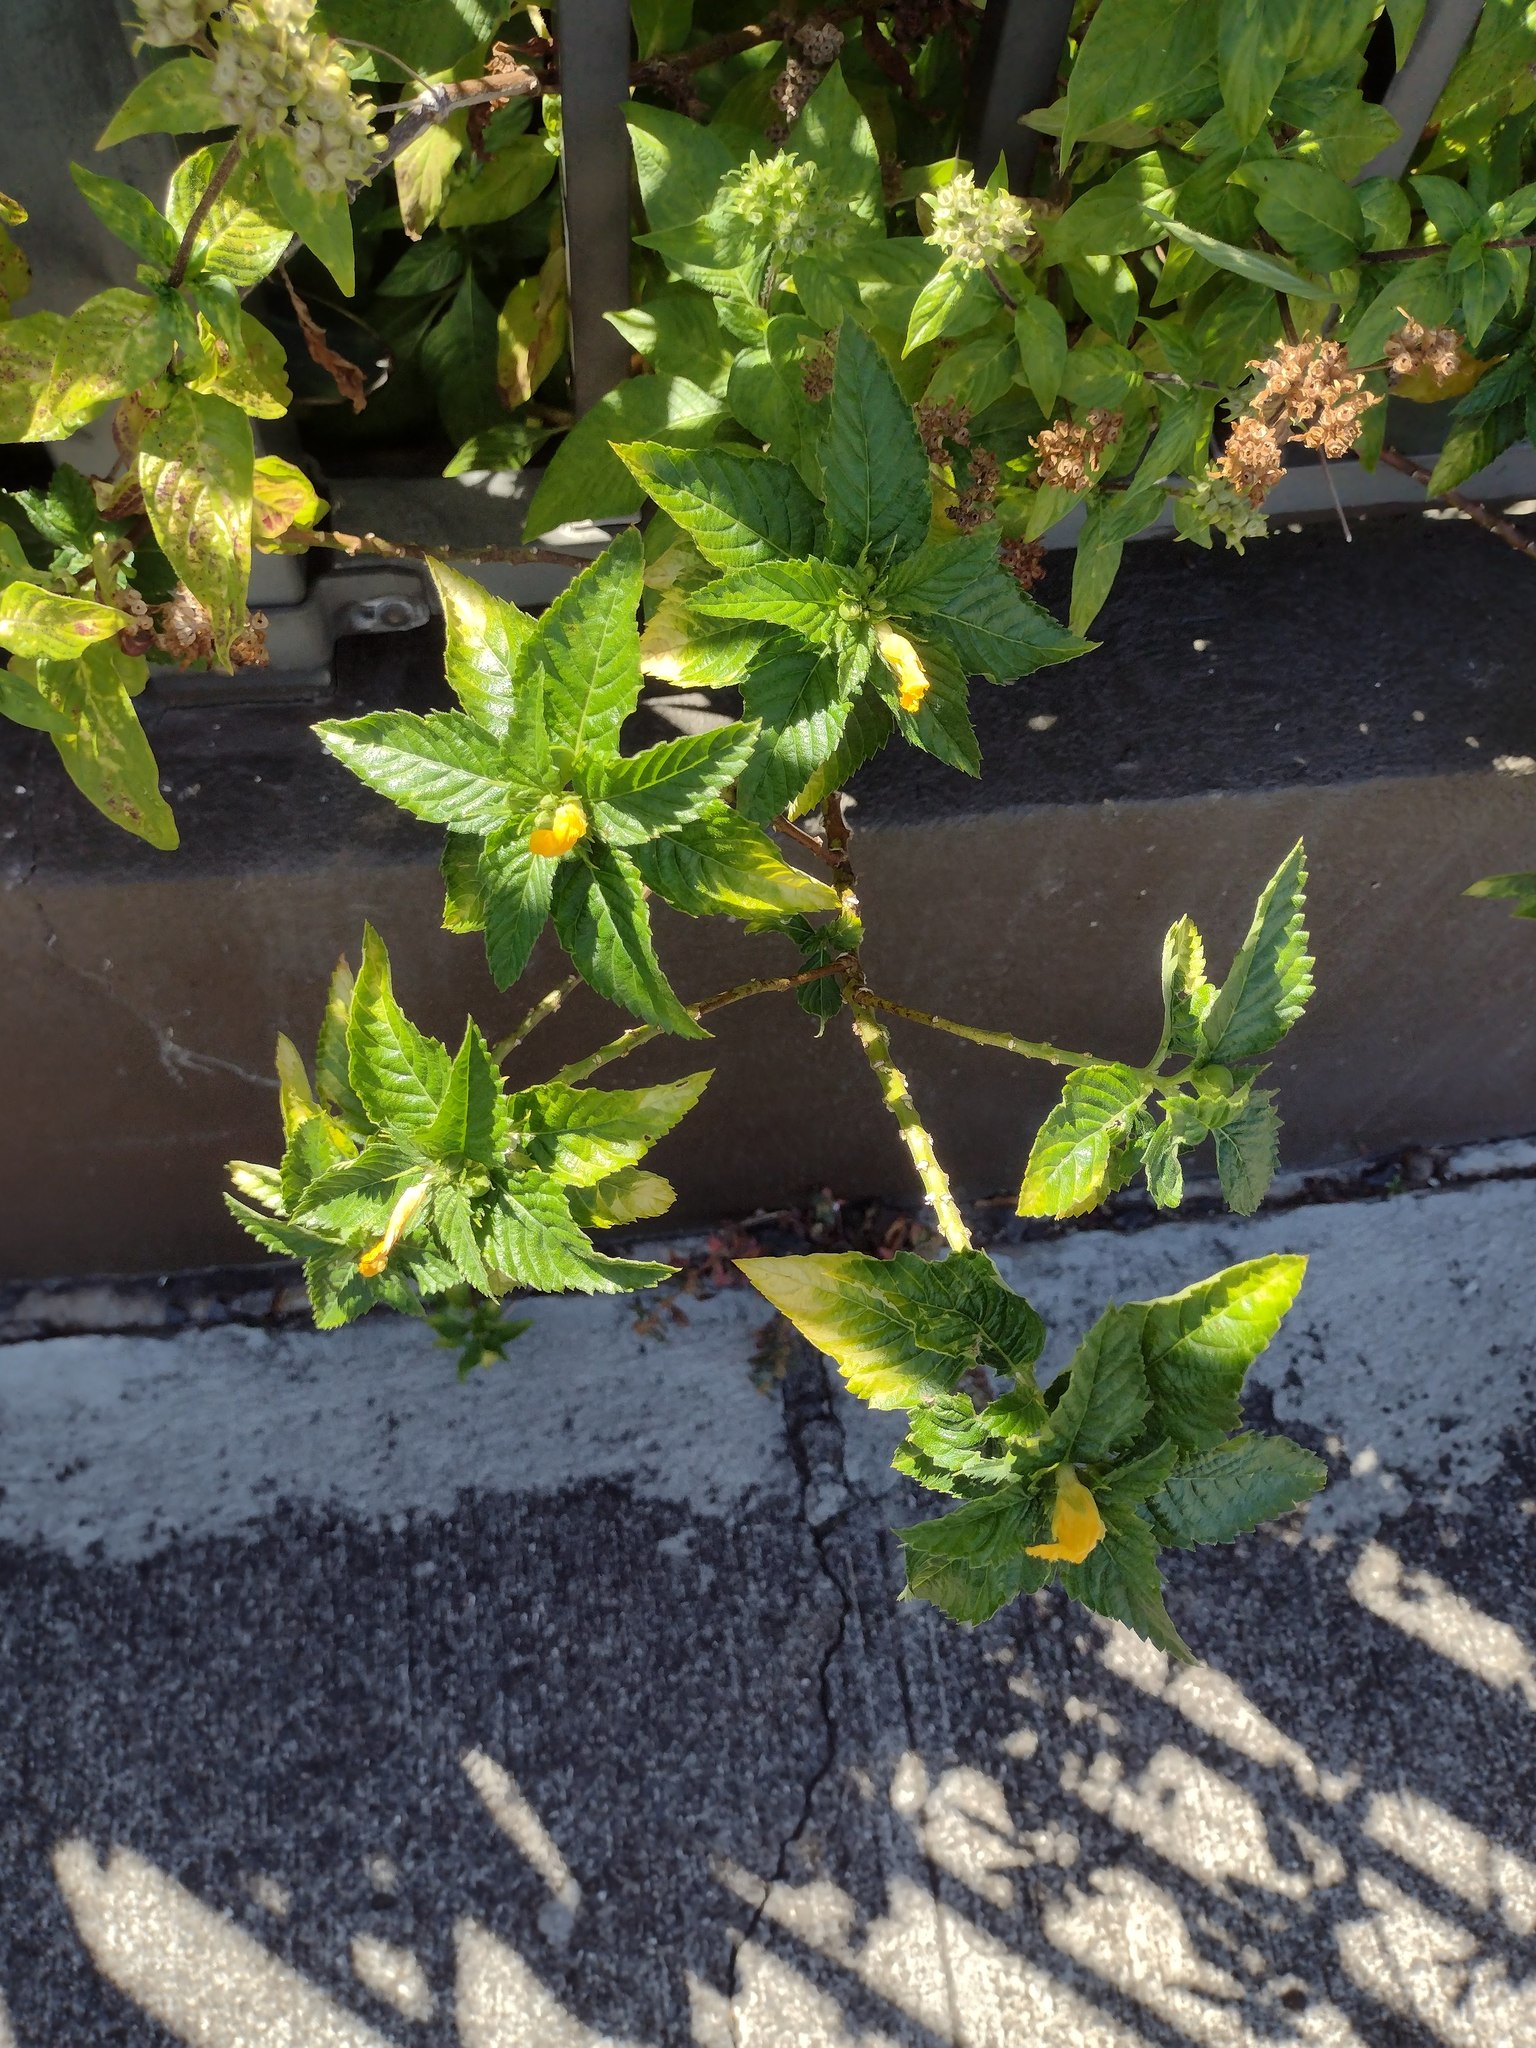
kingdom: Plantae
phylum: Tracheophyta
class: Magnoliopsida
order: Malpighiales
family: Turneraceae
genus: Turnera
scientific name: Turnera ulmifolia
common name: Ramgoat dashalong
